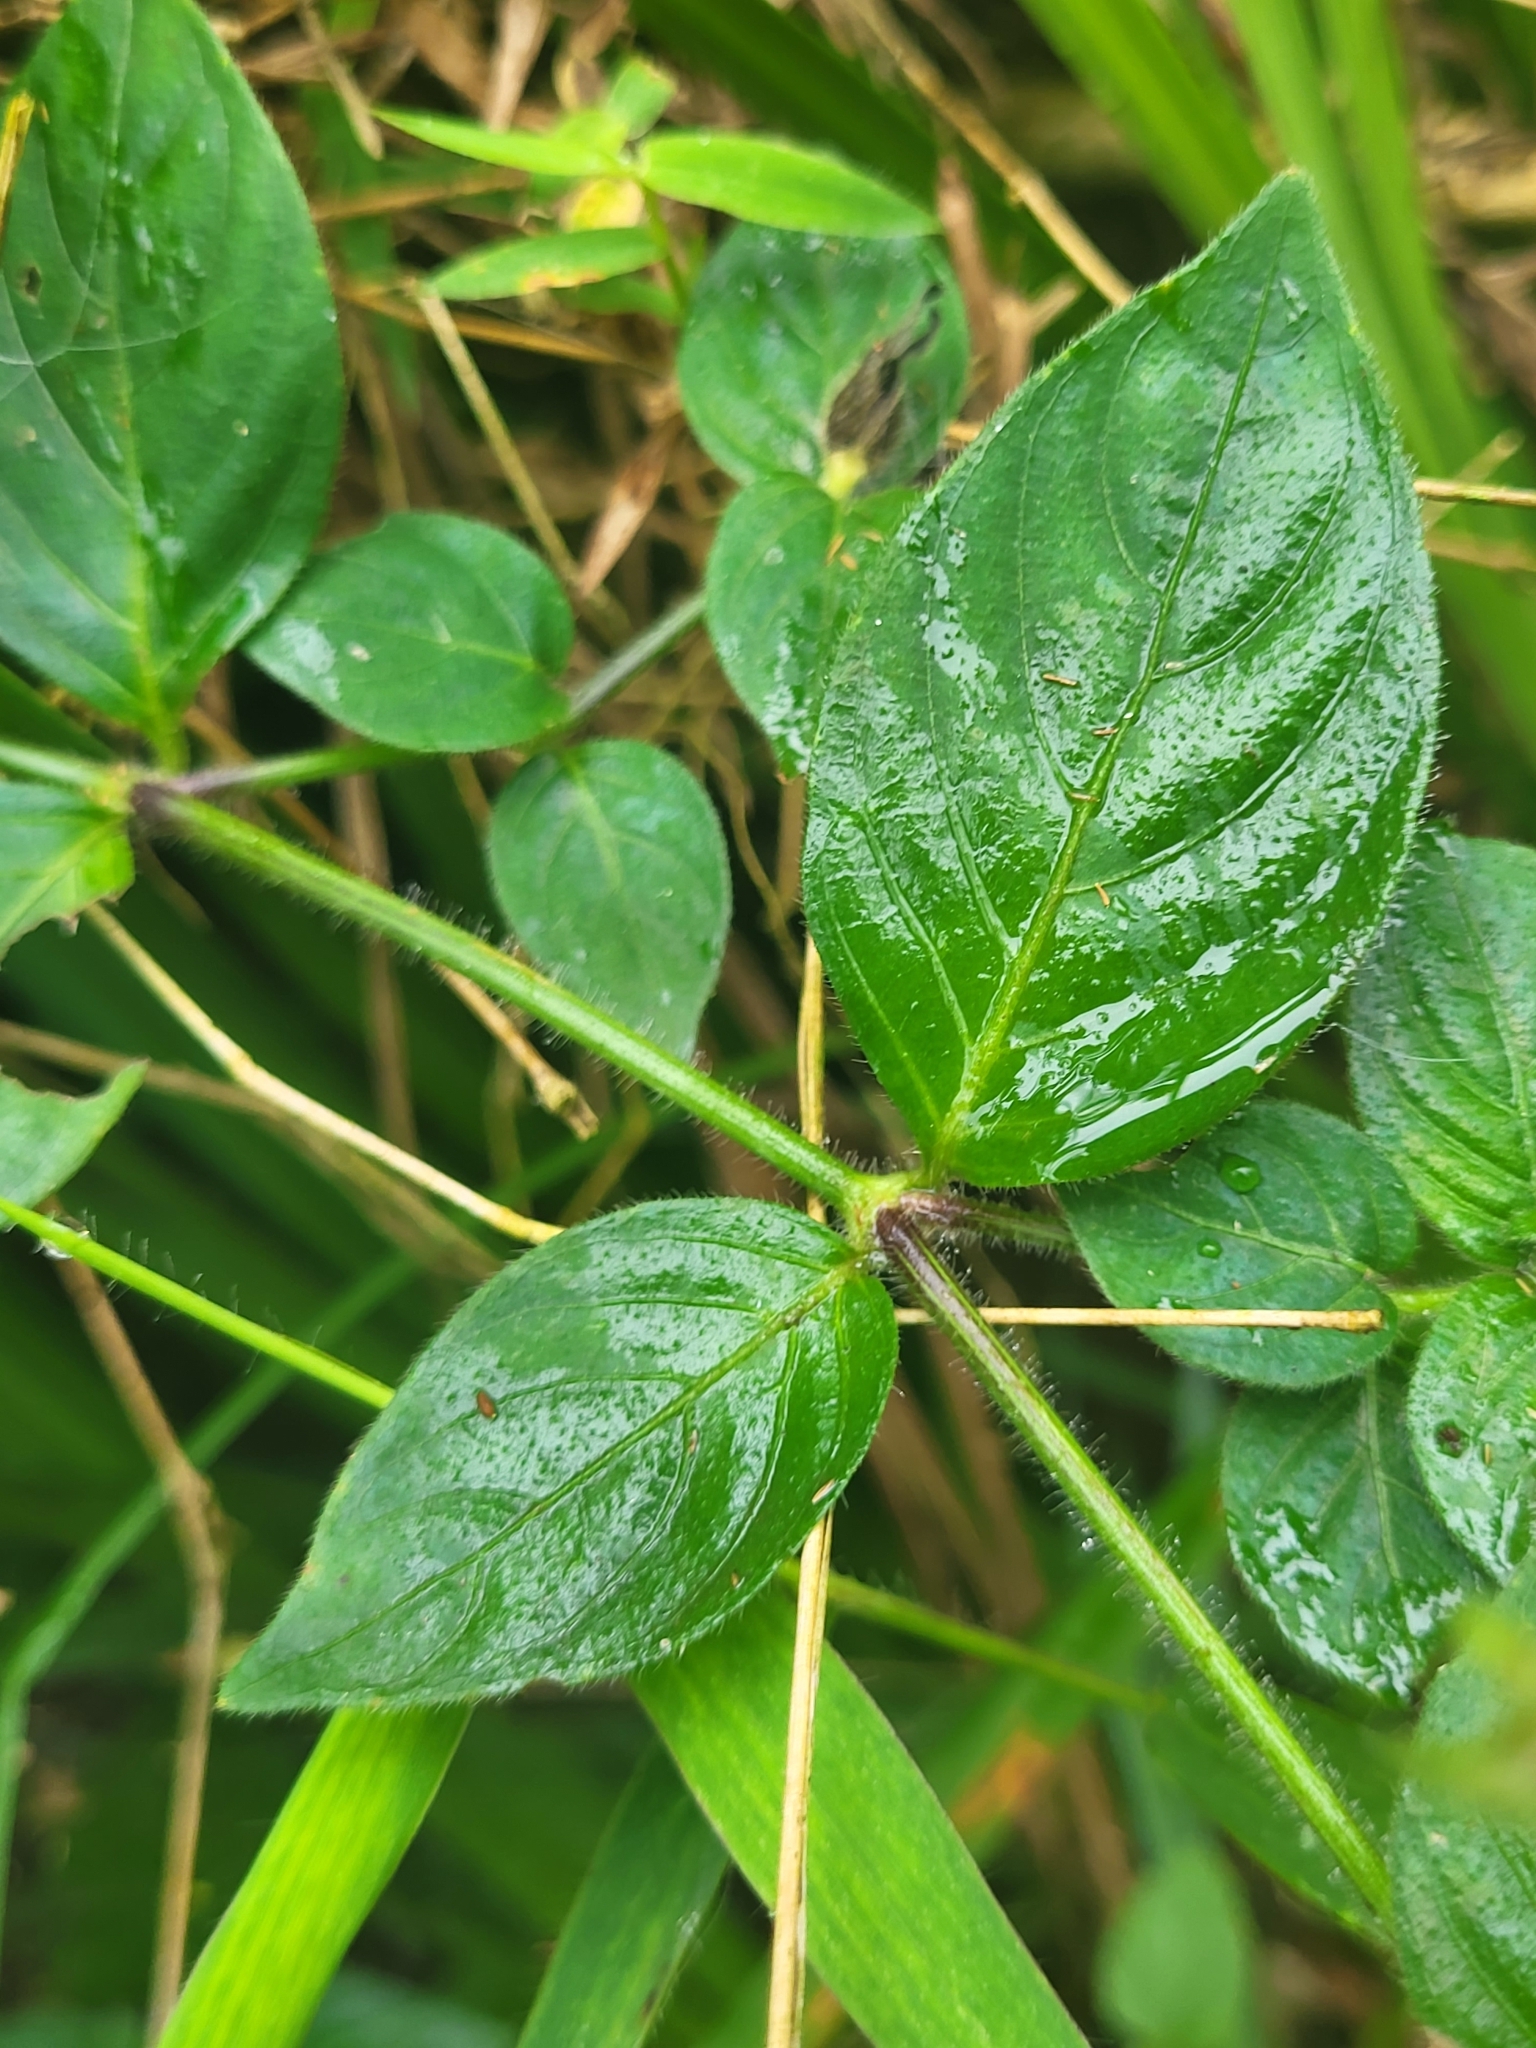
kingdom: Plantae
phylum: Tracheophyta
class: Magnoliopsida
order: Lamiales
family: Acanthaceae
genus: Justicia
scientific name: Justicia flava
